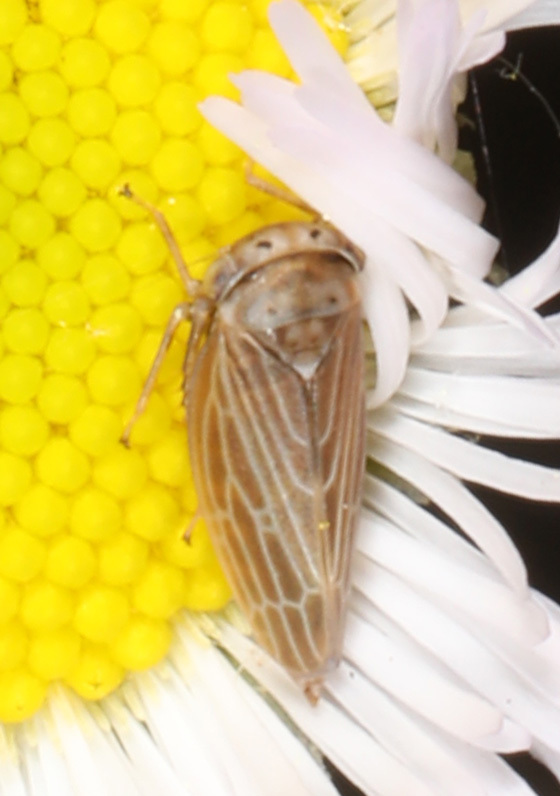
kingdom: Animalia
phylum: Arthropoda
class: Insecta
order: Hemiptera
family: Cicadellidae
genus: Agalliota
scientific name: Agalliota quadripunctata
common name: The four-spotted clover leafhopper
